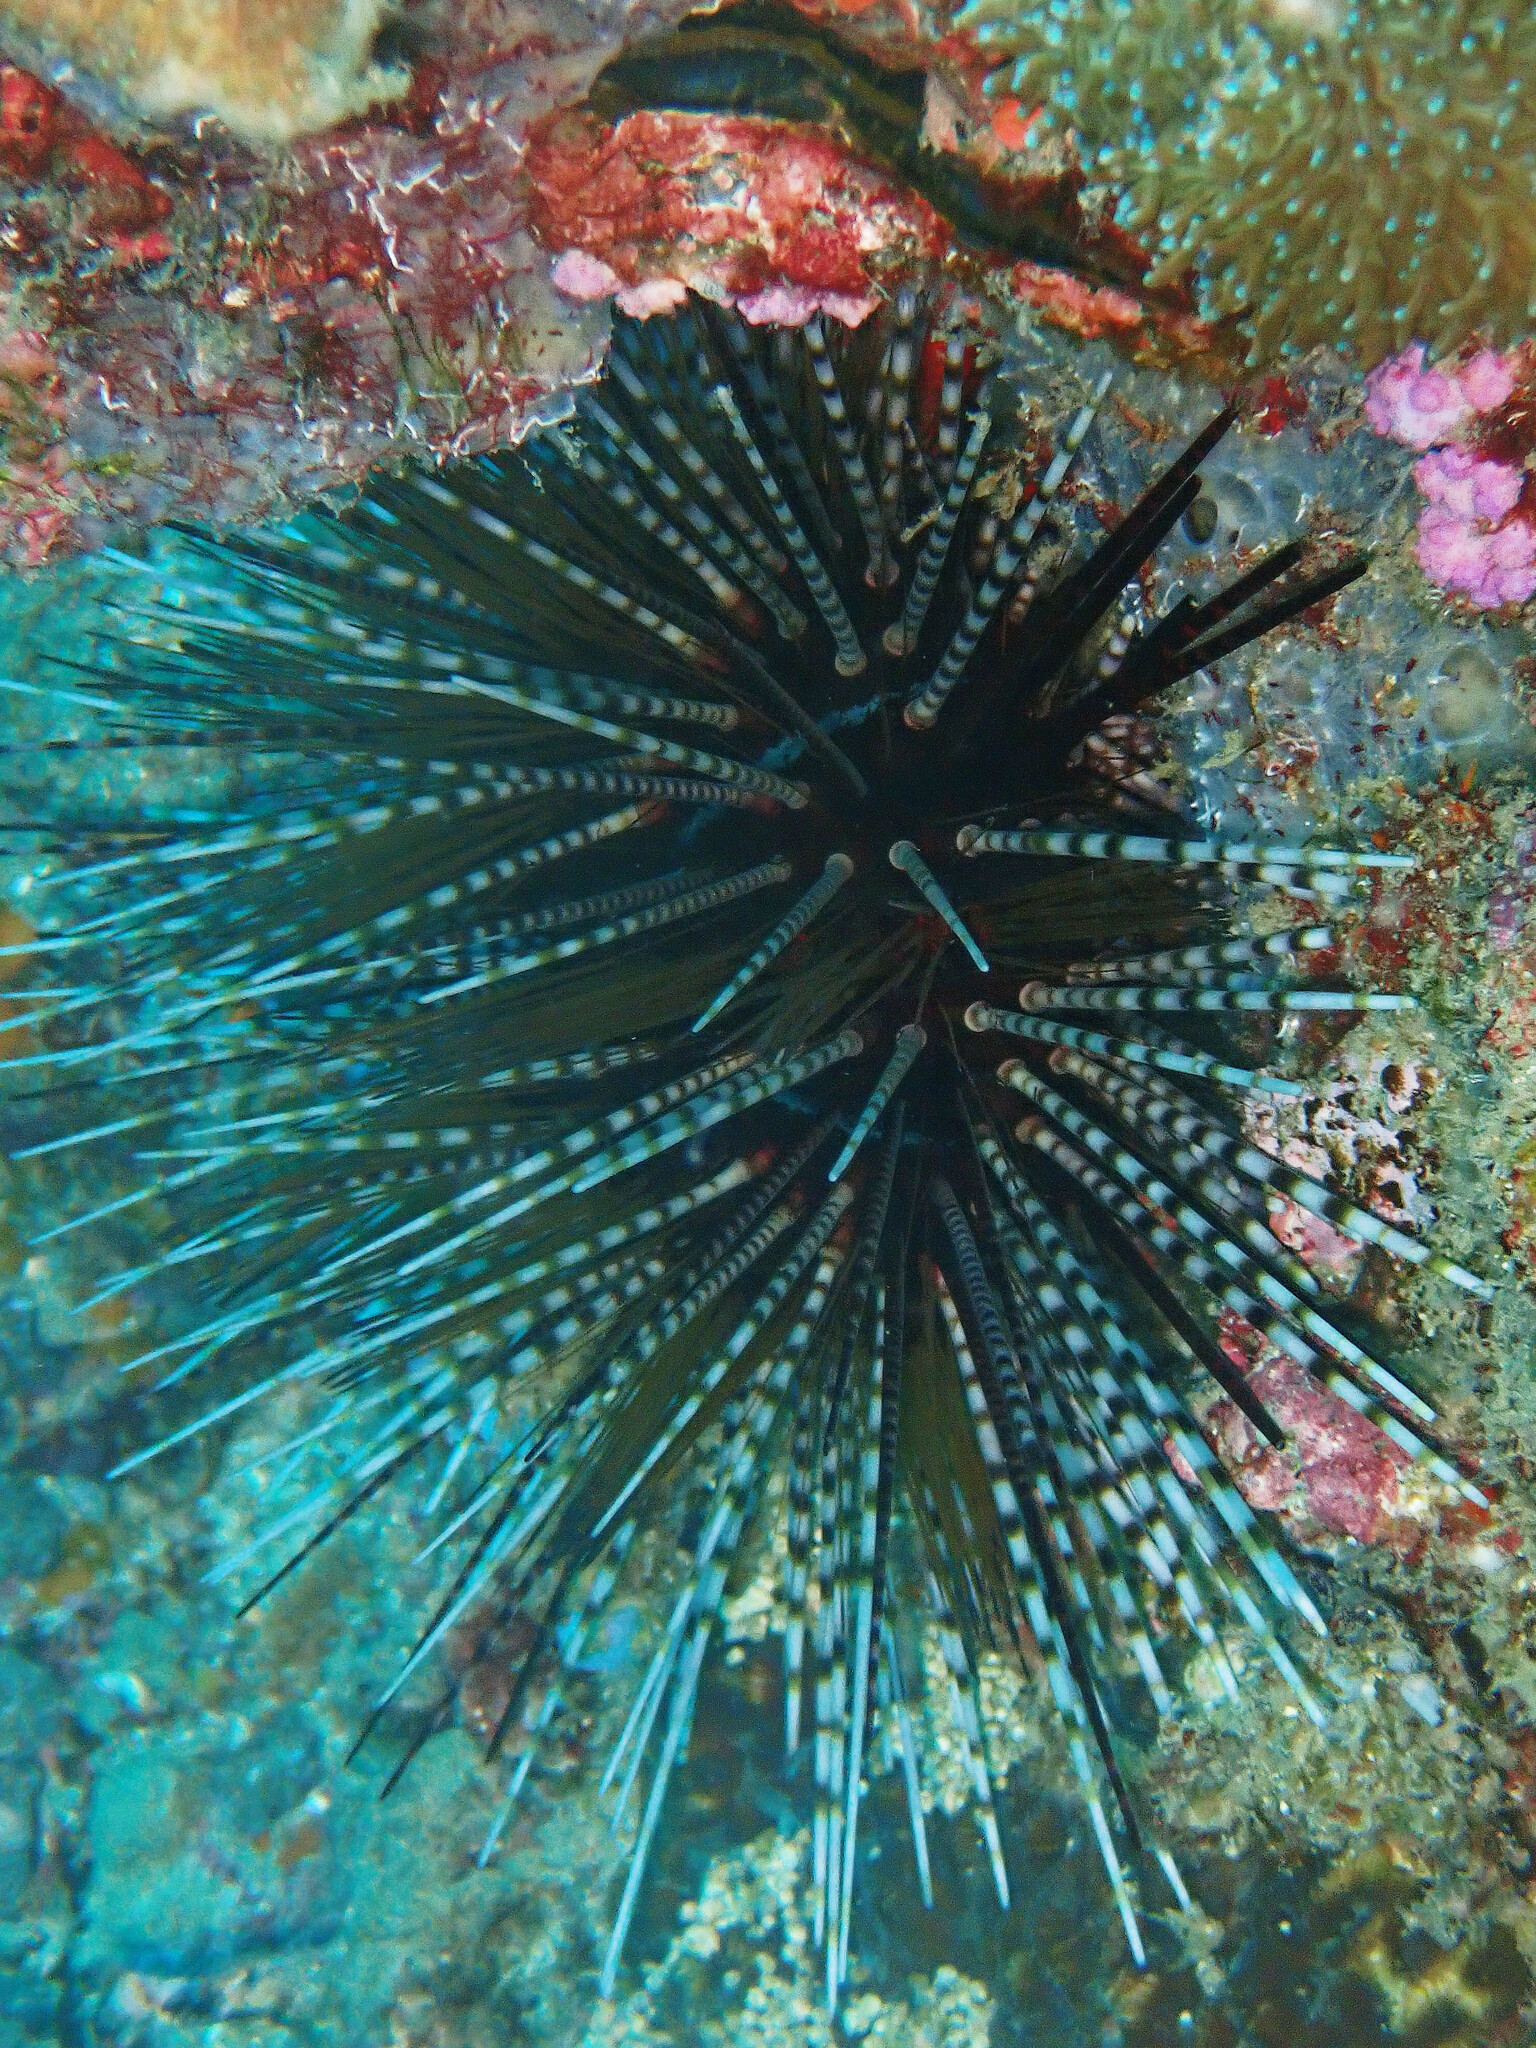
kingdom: Animalia
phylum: Echinodermata
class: Echinoidea
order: Diadematoida
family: Diadematidae
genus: Echinothrix
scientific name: Echinothrix calamaris
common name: Banded sea urchin
